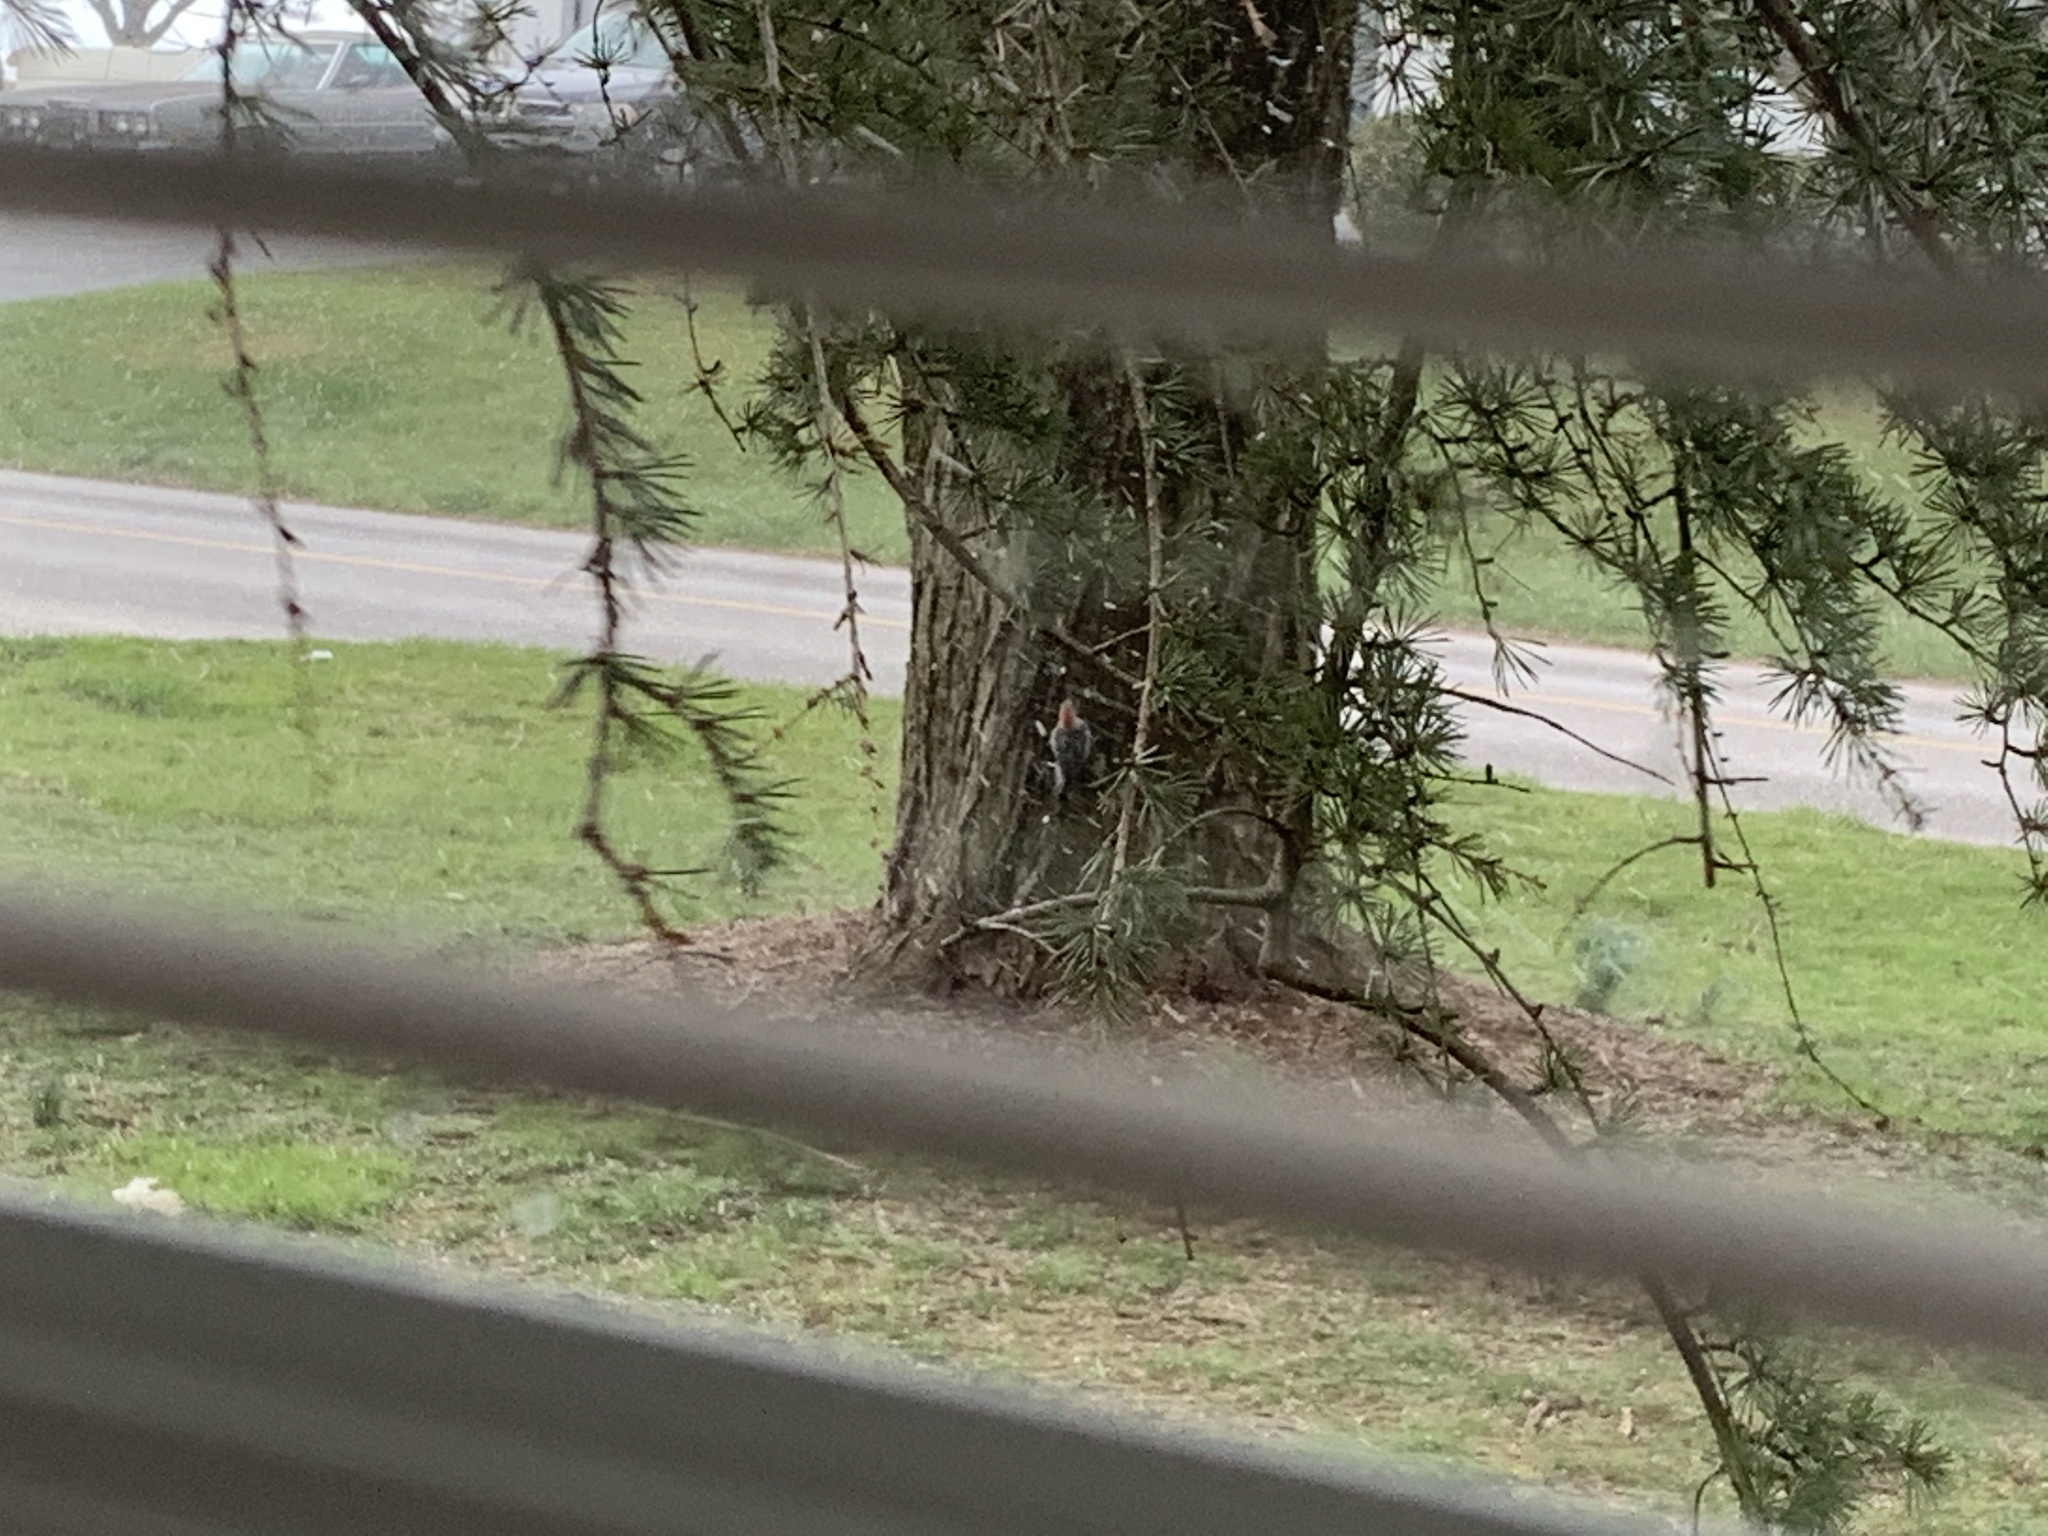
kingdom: Animalia
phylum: Chordata
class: Aves
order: Piciformes
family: Picidae
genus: Melanerpes
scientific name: Melanerpes carolinus
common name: Red-bellied woodpecker
